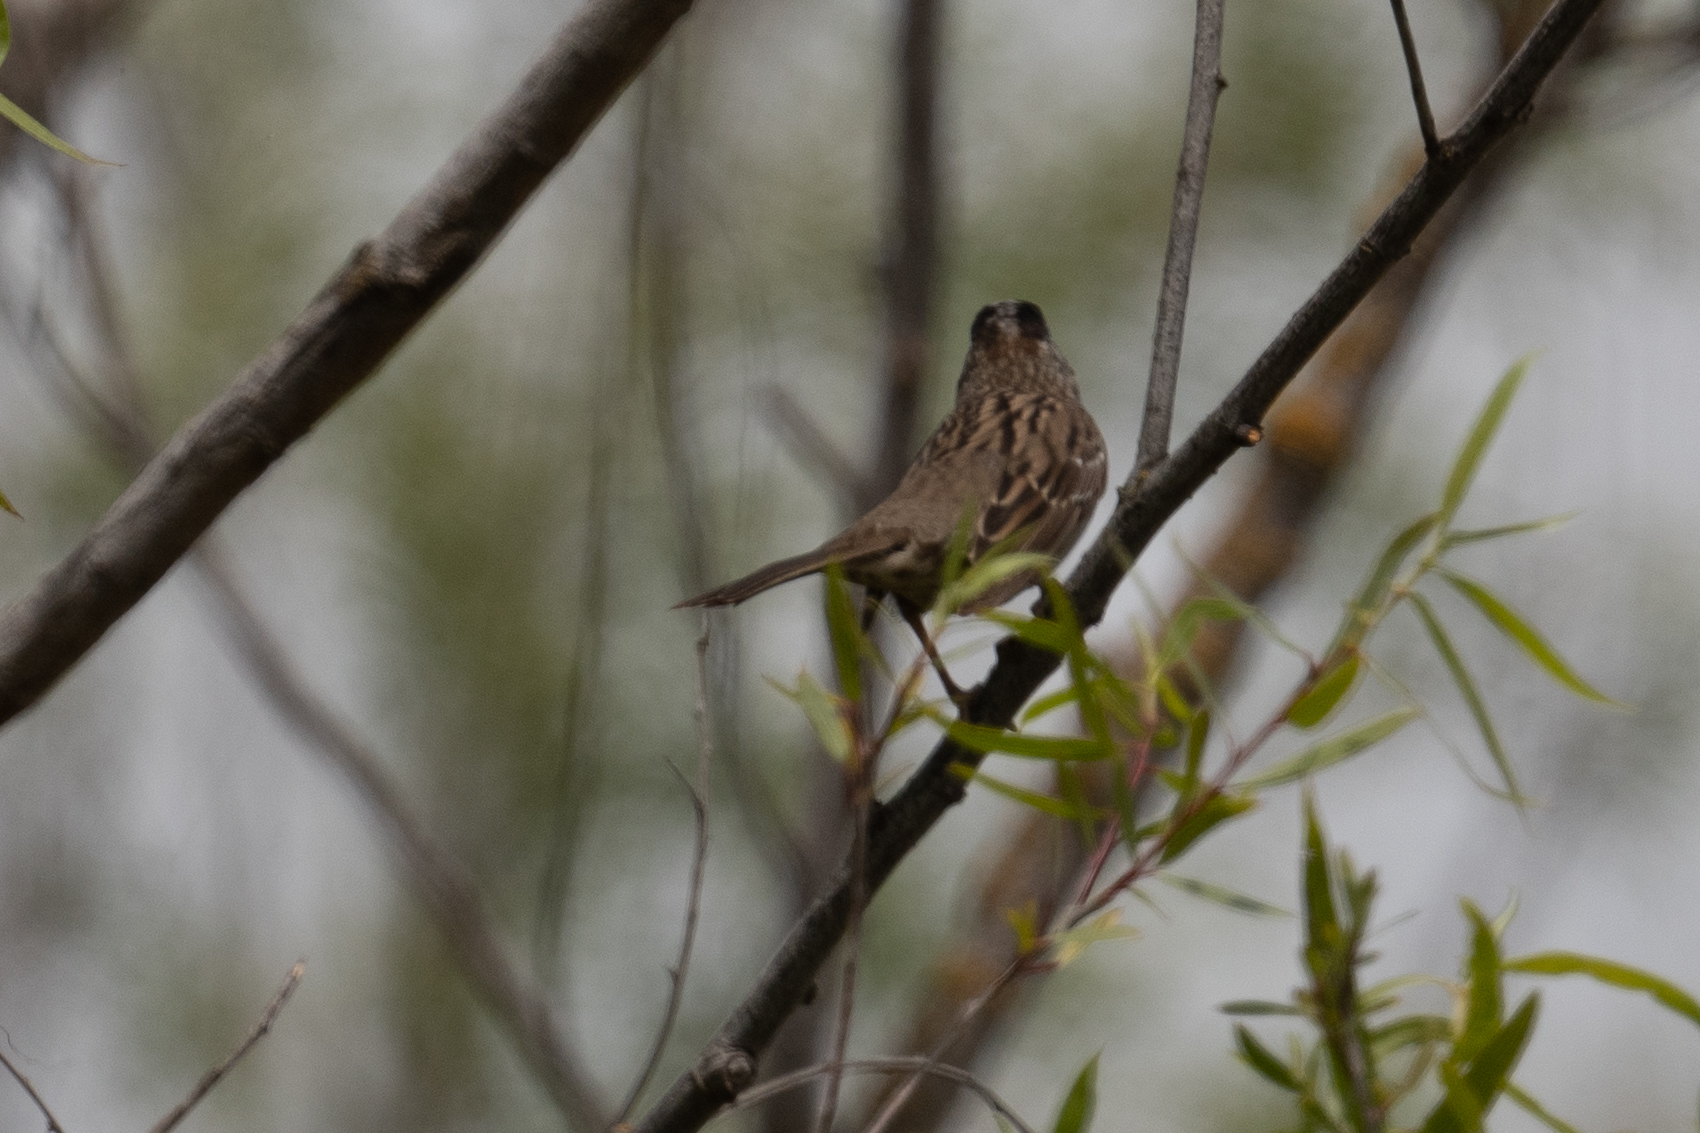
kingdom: Animalia
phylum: Chordata
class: Aves
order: Passeriformes
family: Passerellidae
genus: Zonotrichia
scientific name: Zonotrichia atricapilla
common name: Golden-crowned sparrow
